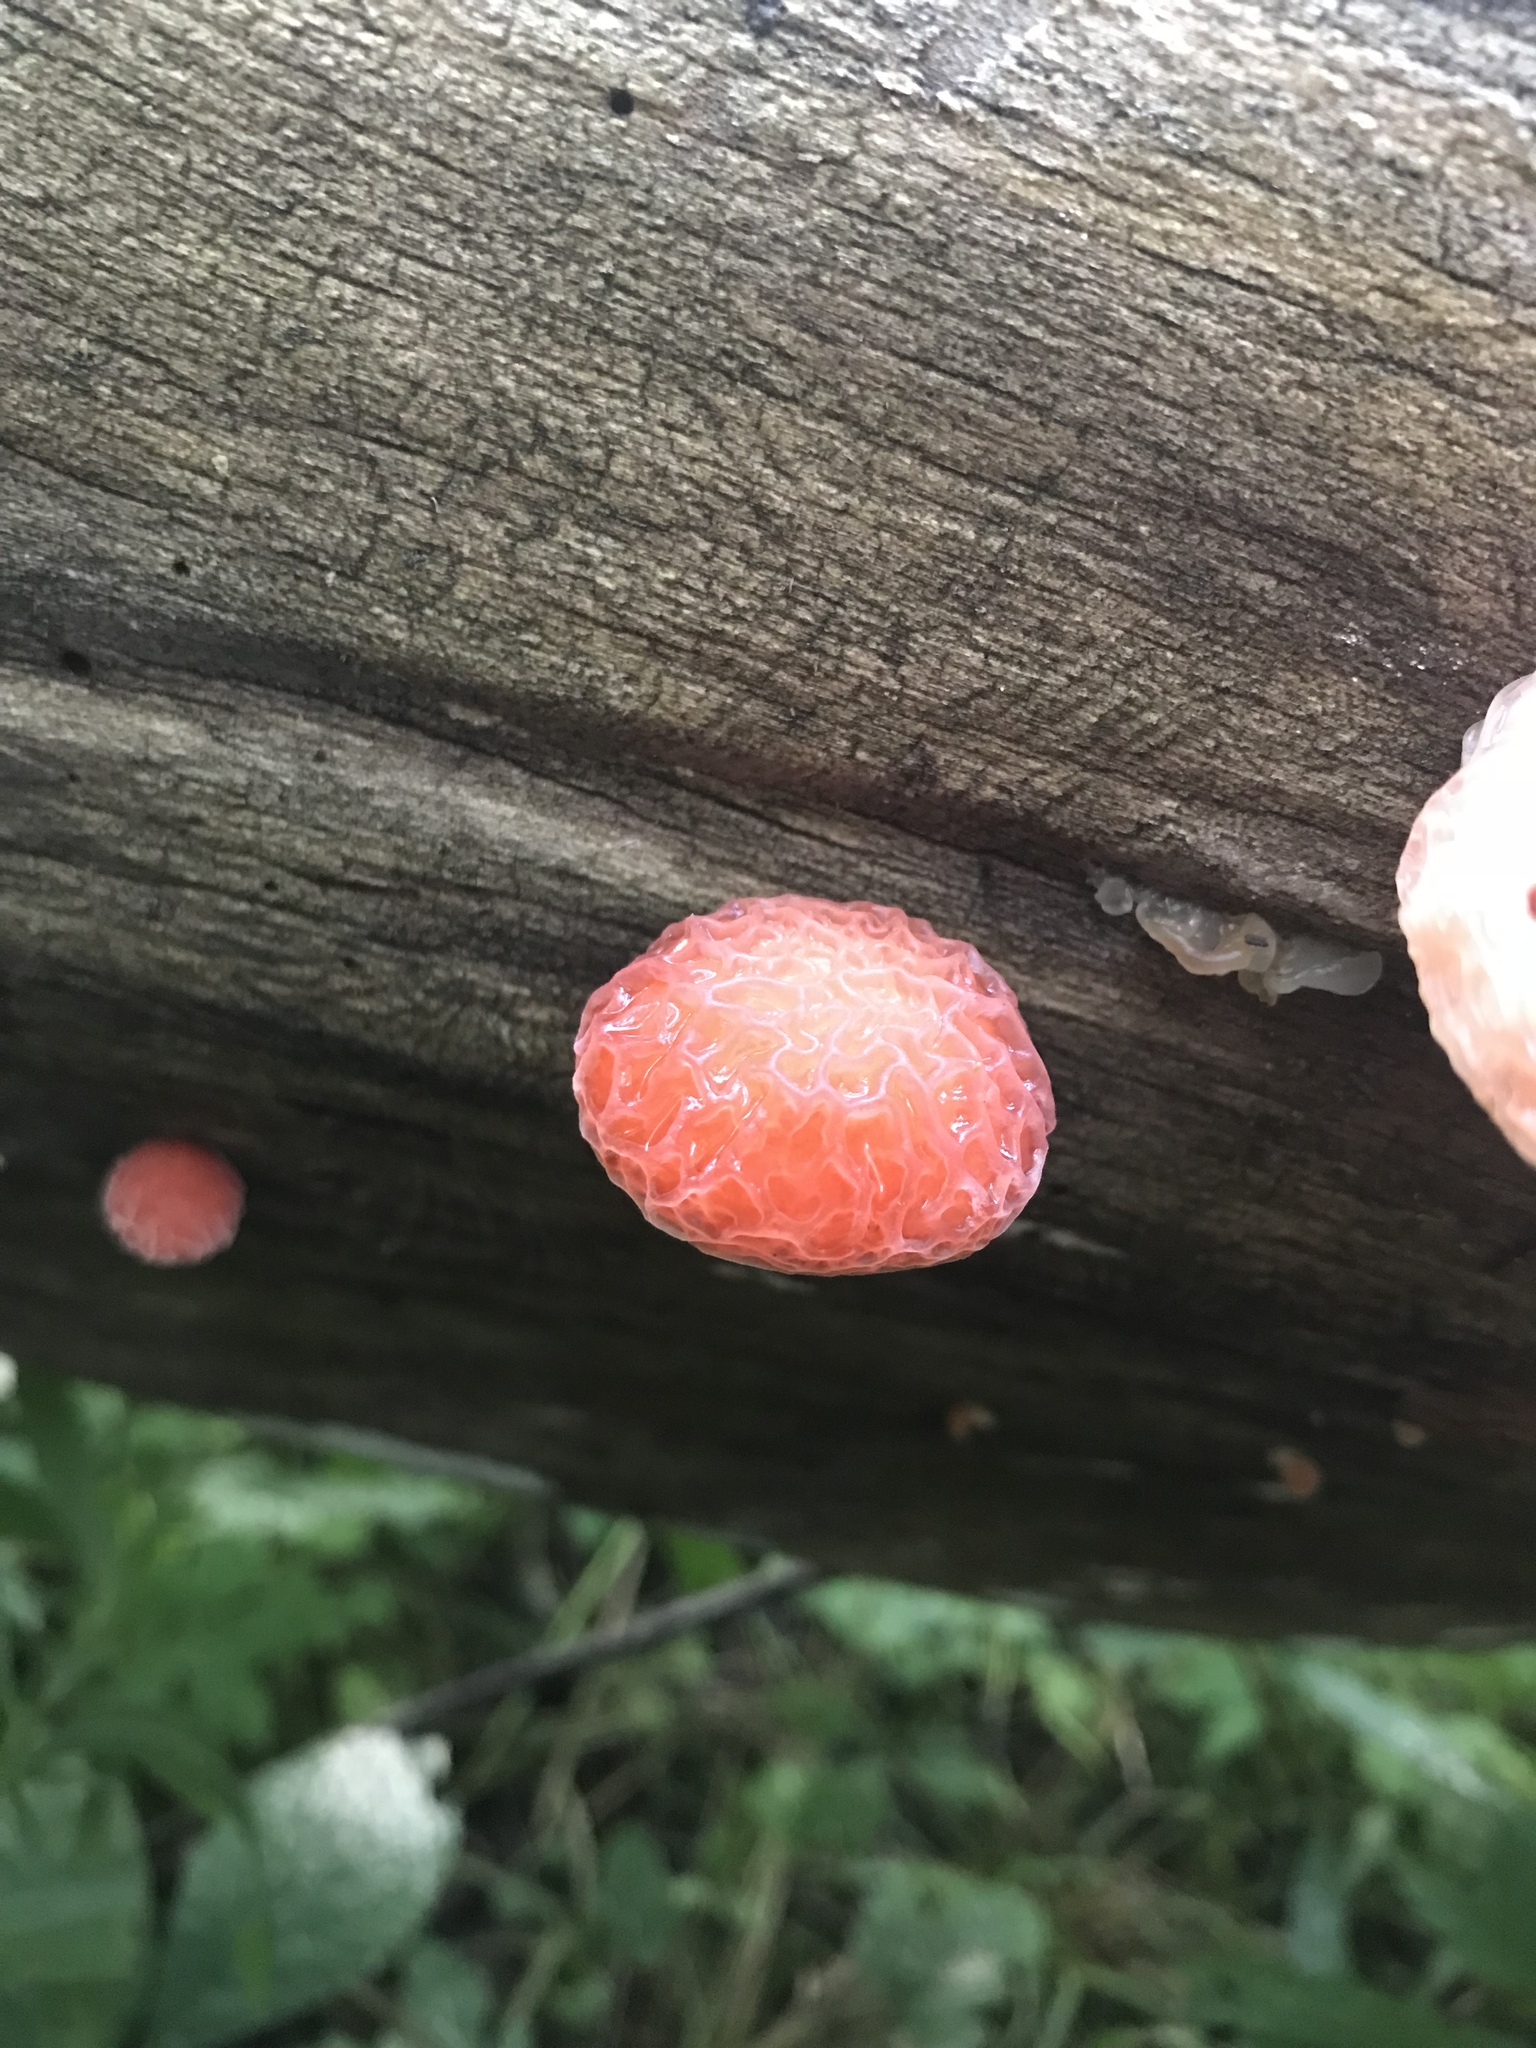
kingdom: Fungi
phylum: Basidiomycota
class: Agaricomycetes
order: Agaricales
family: Physalacriaceae
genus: Rhodotus
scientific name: Rhodotus palmatus
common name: Wrinkled peach
